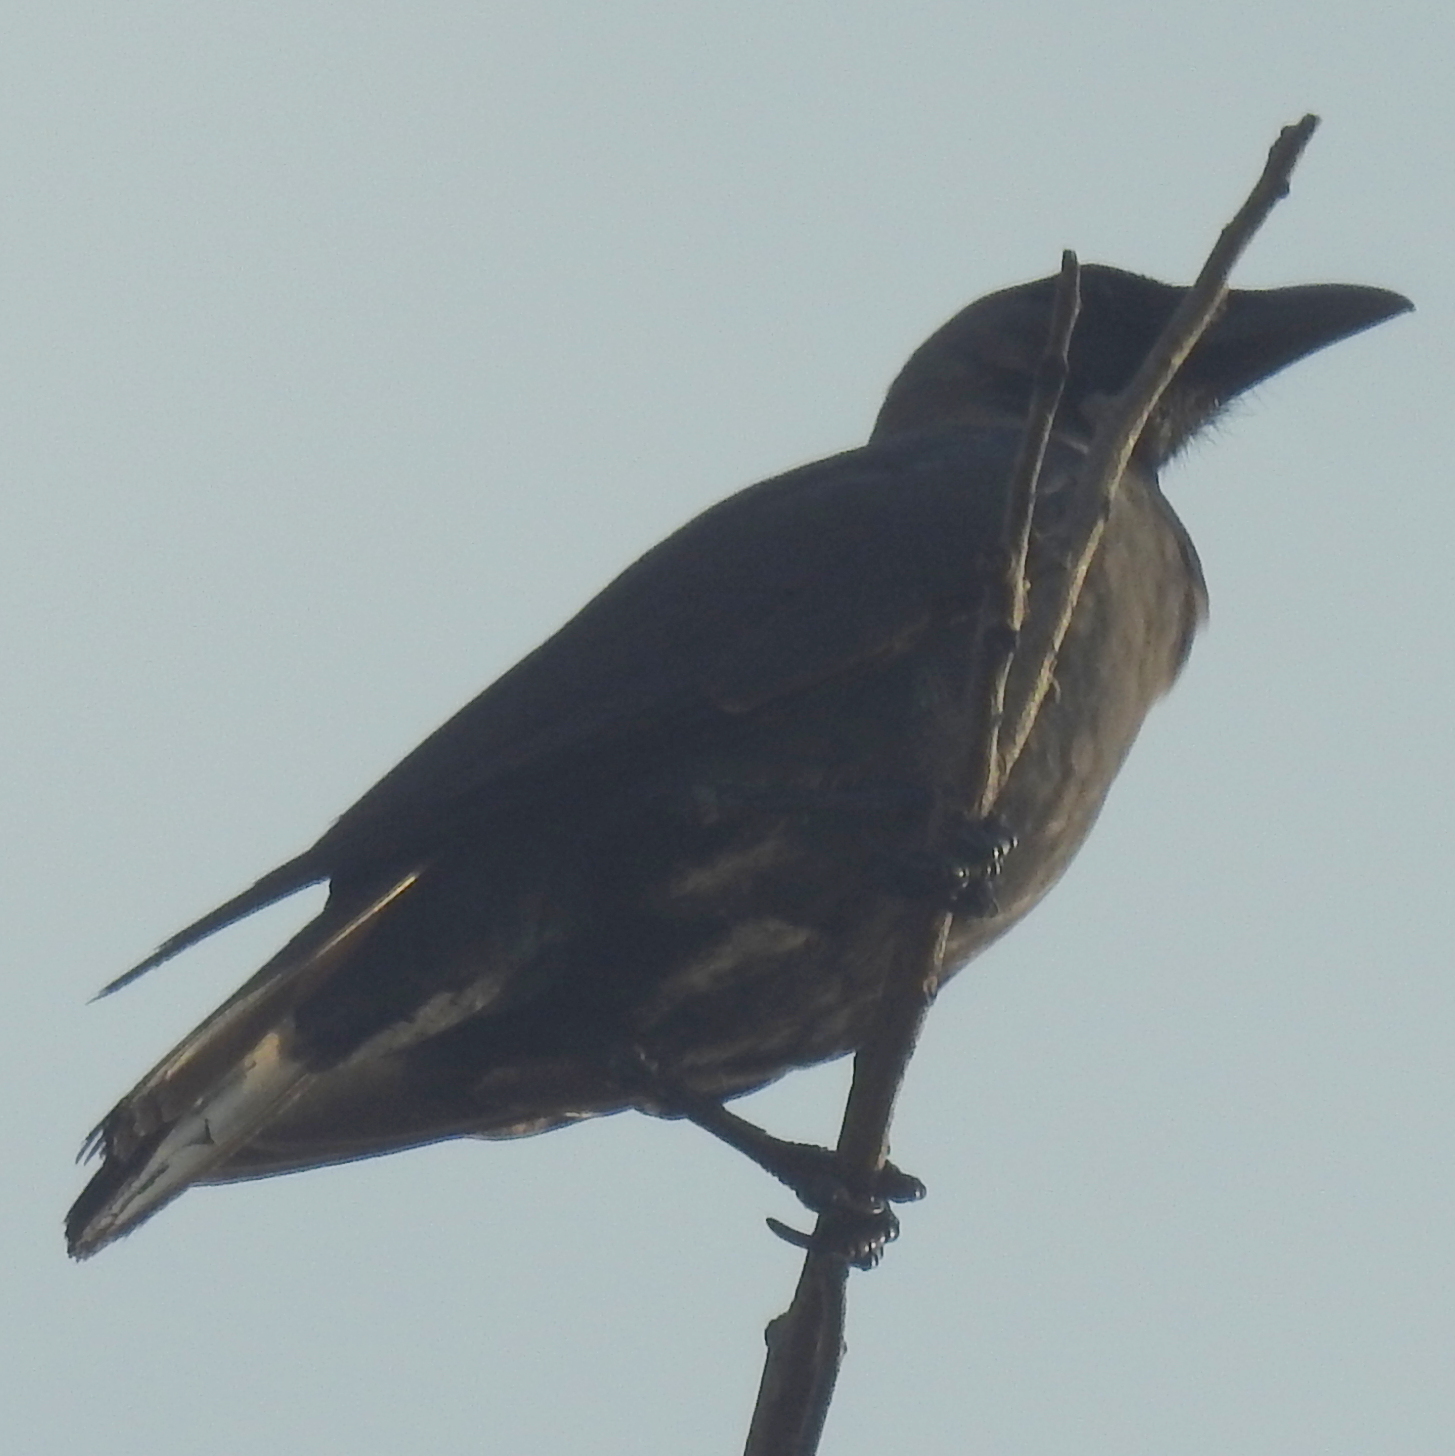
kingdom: Animalia
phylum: Chordata
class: Aves
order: Passeriformes
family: Corvidae
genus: Corvus
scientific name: Corvus splendens
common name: House crow
